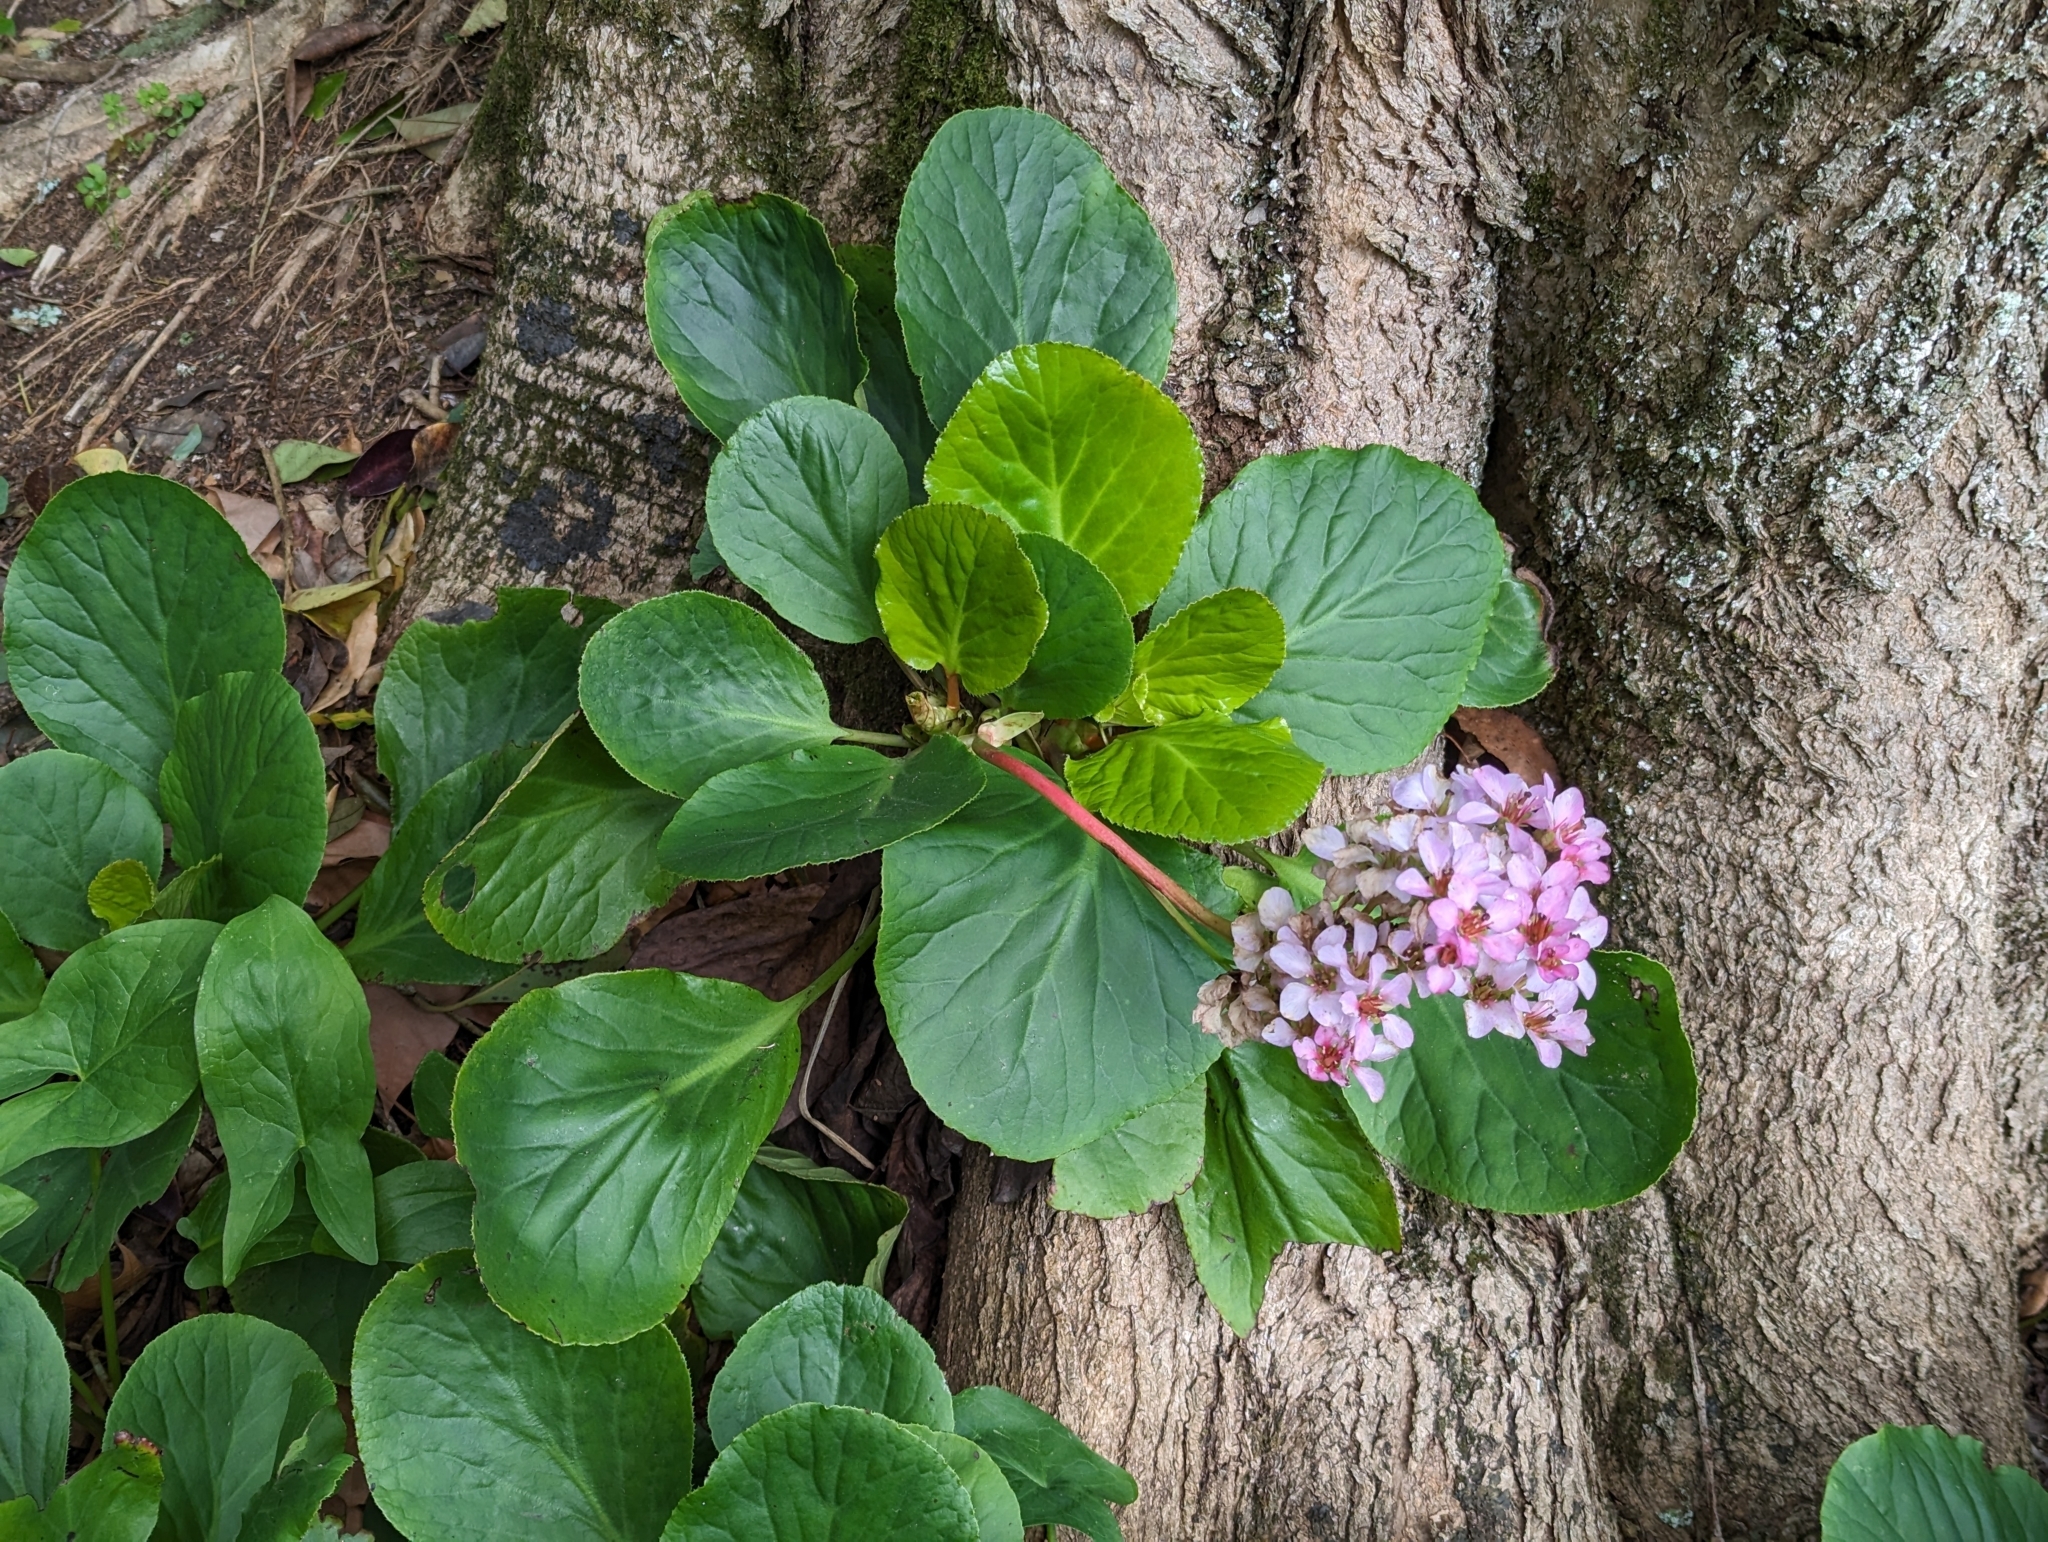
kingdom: Plantae
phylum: Tracheophyta
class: Magnoliopsida
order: Saxifragales
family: Saxifragaceae
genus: Bergenia
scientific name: Bergenia crassifolia
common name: Elephant-ears
